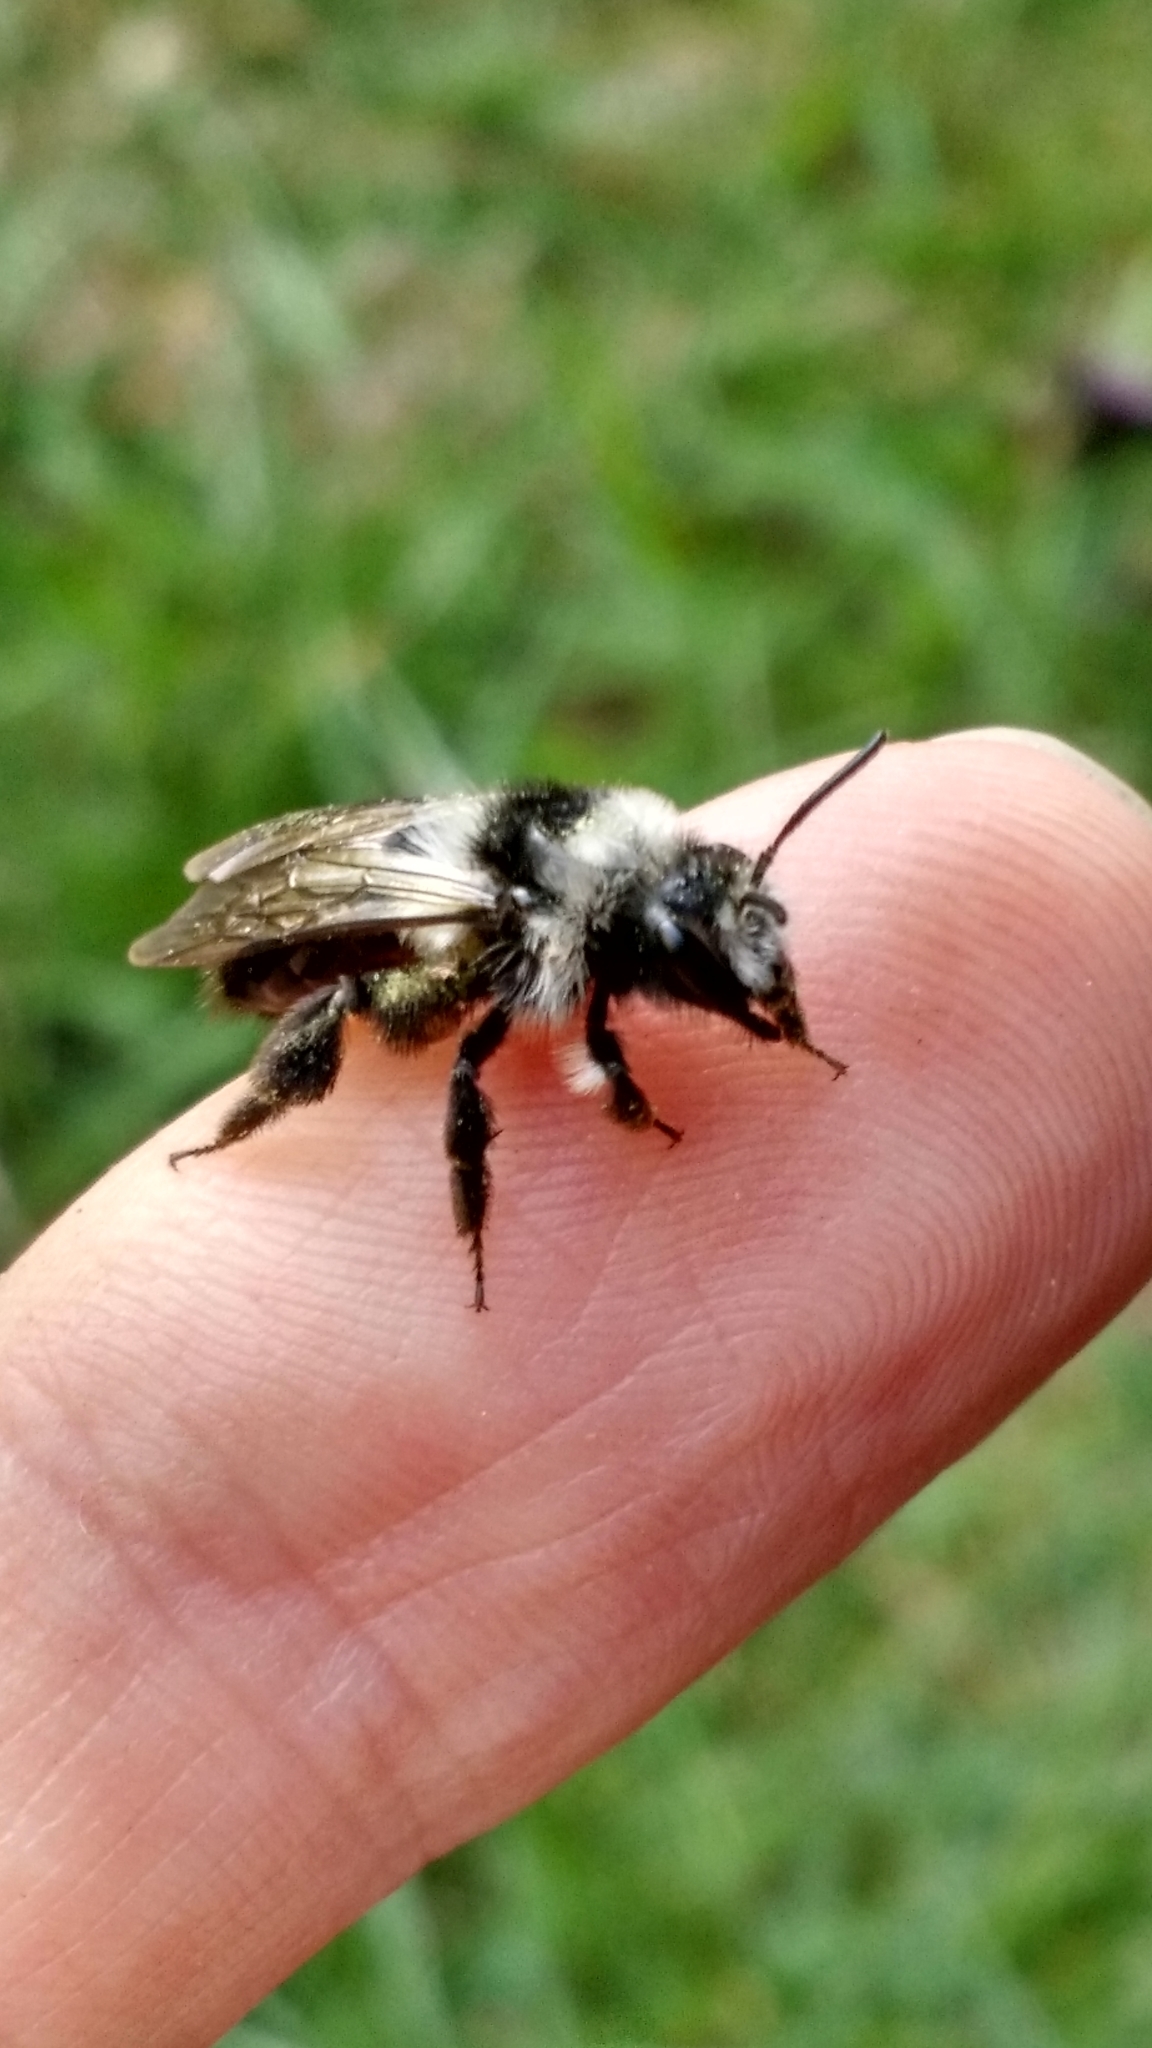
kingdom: Animalia
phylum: Arthropoda
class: Insecta
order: Hymenoptera
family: Andrenidae
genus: Andrena
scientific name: Andrena cineraria
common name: Ashy mining bee
